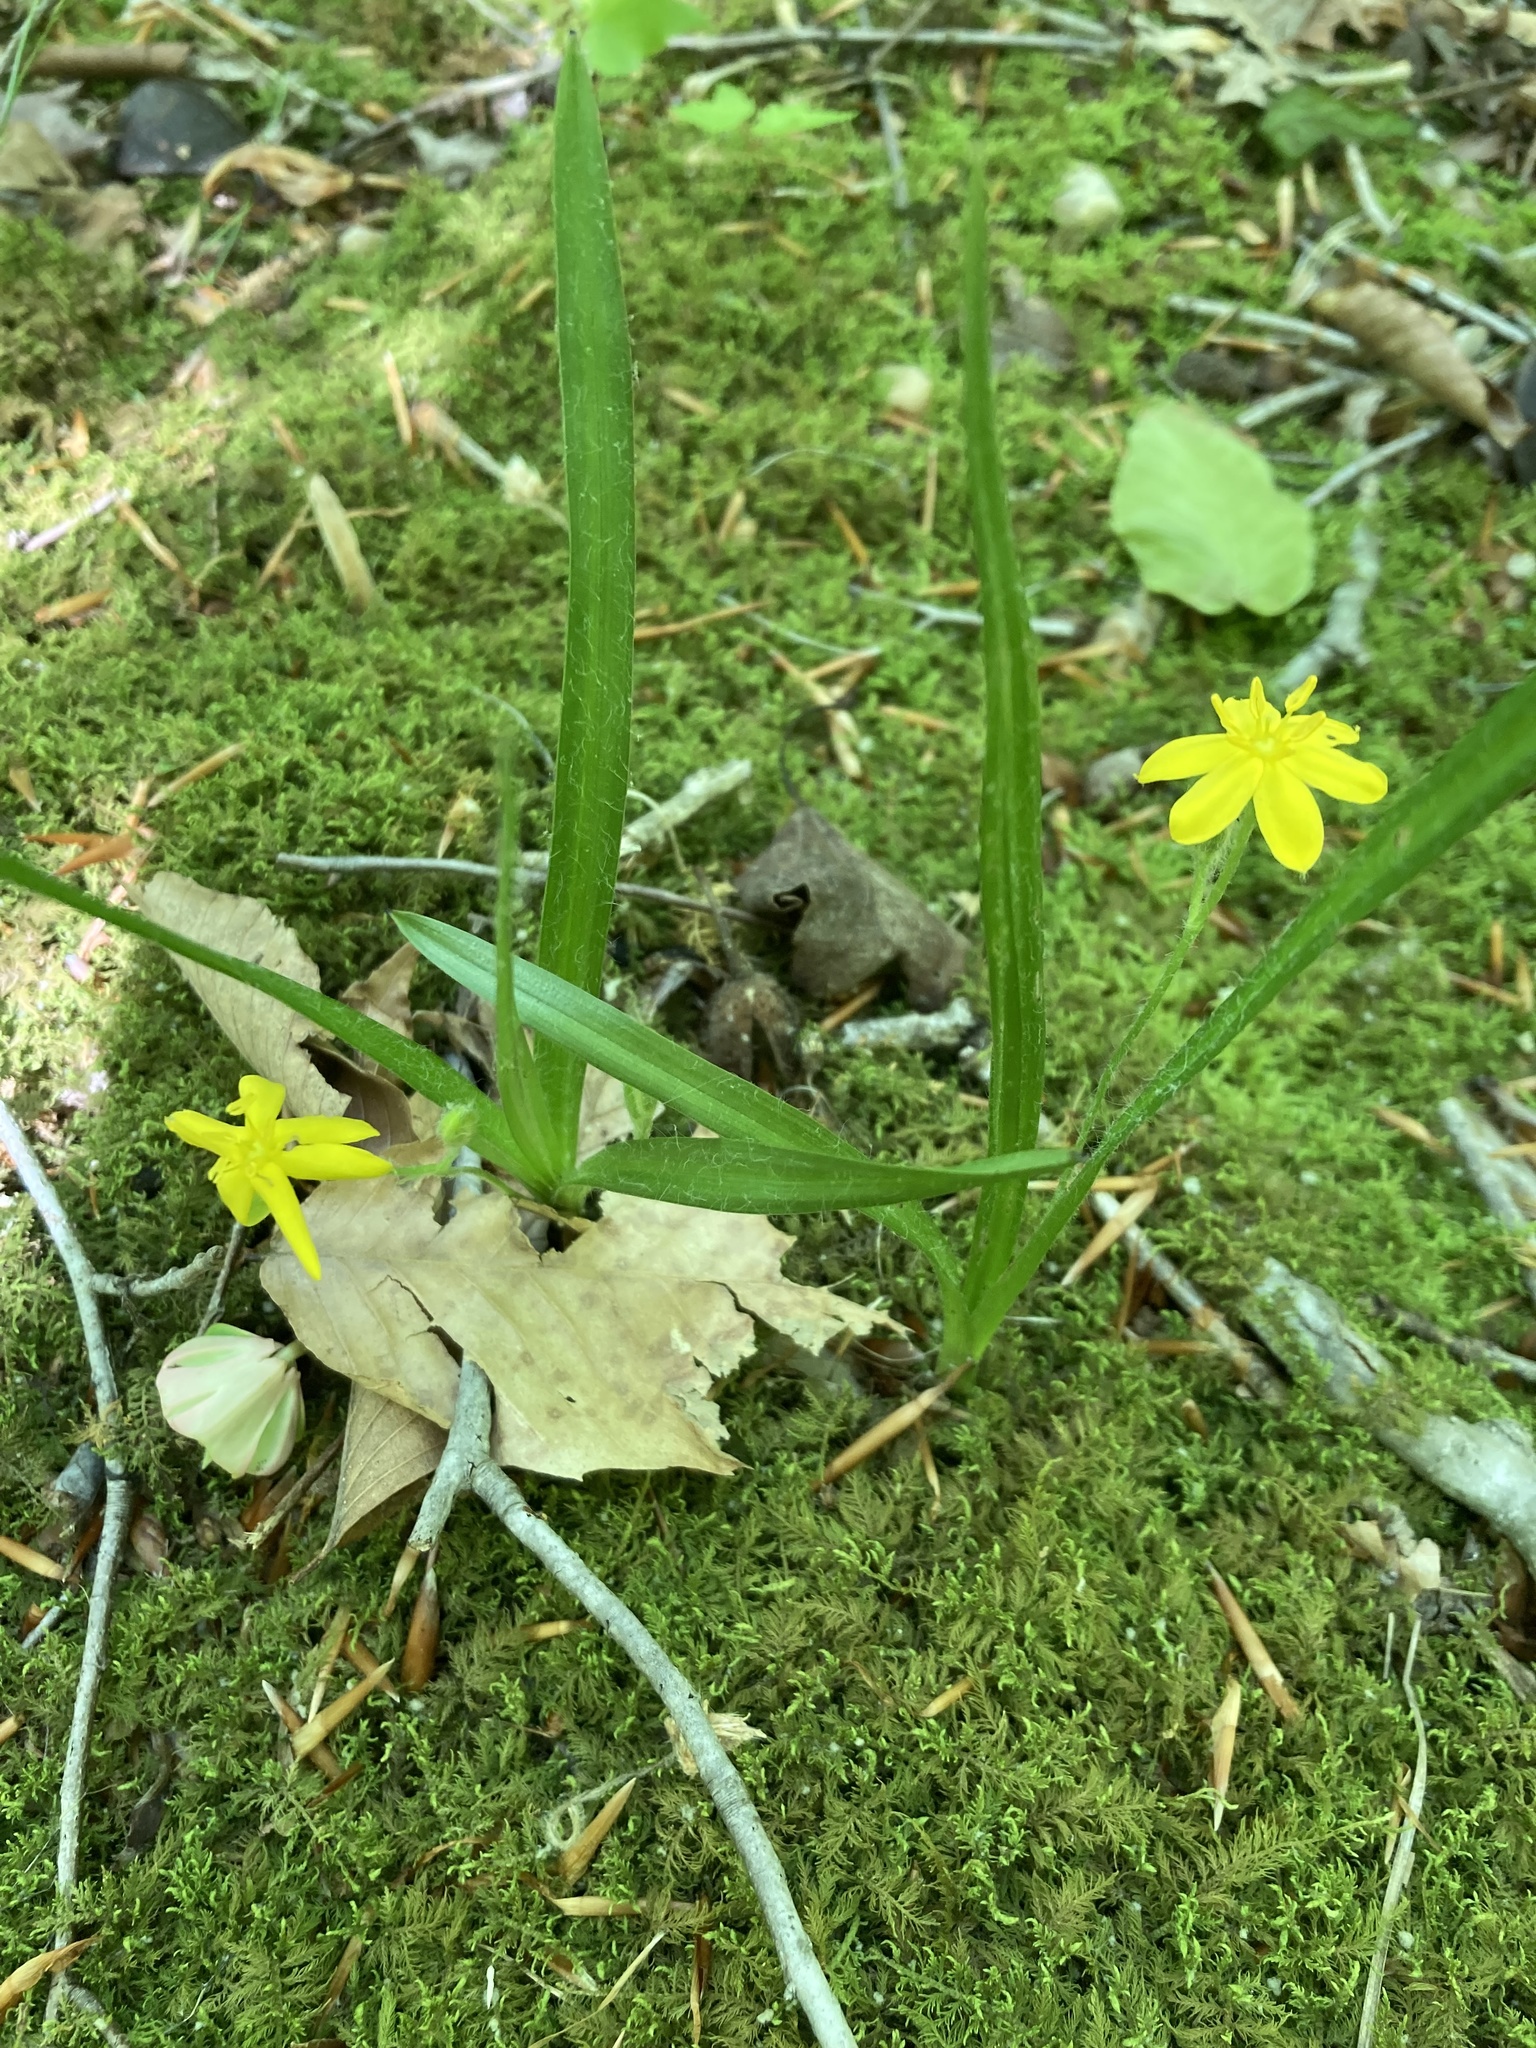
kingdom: Plantae
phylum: Tracheophyta
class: Liliopsida
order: Asparagales
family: Hypoxidaceae
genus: Hypoxis
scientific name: Hypoxis hirsuta
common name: Common goldstar
